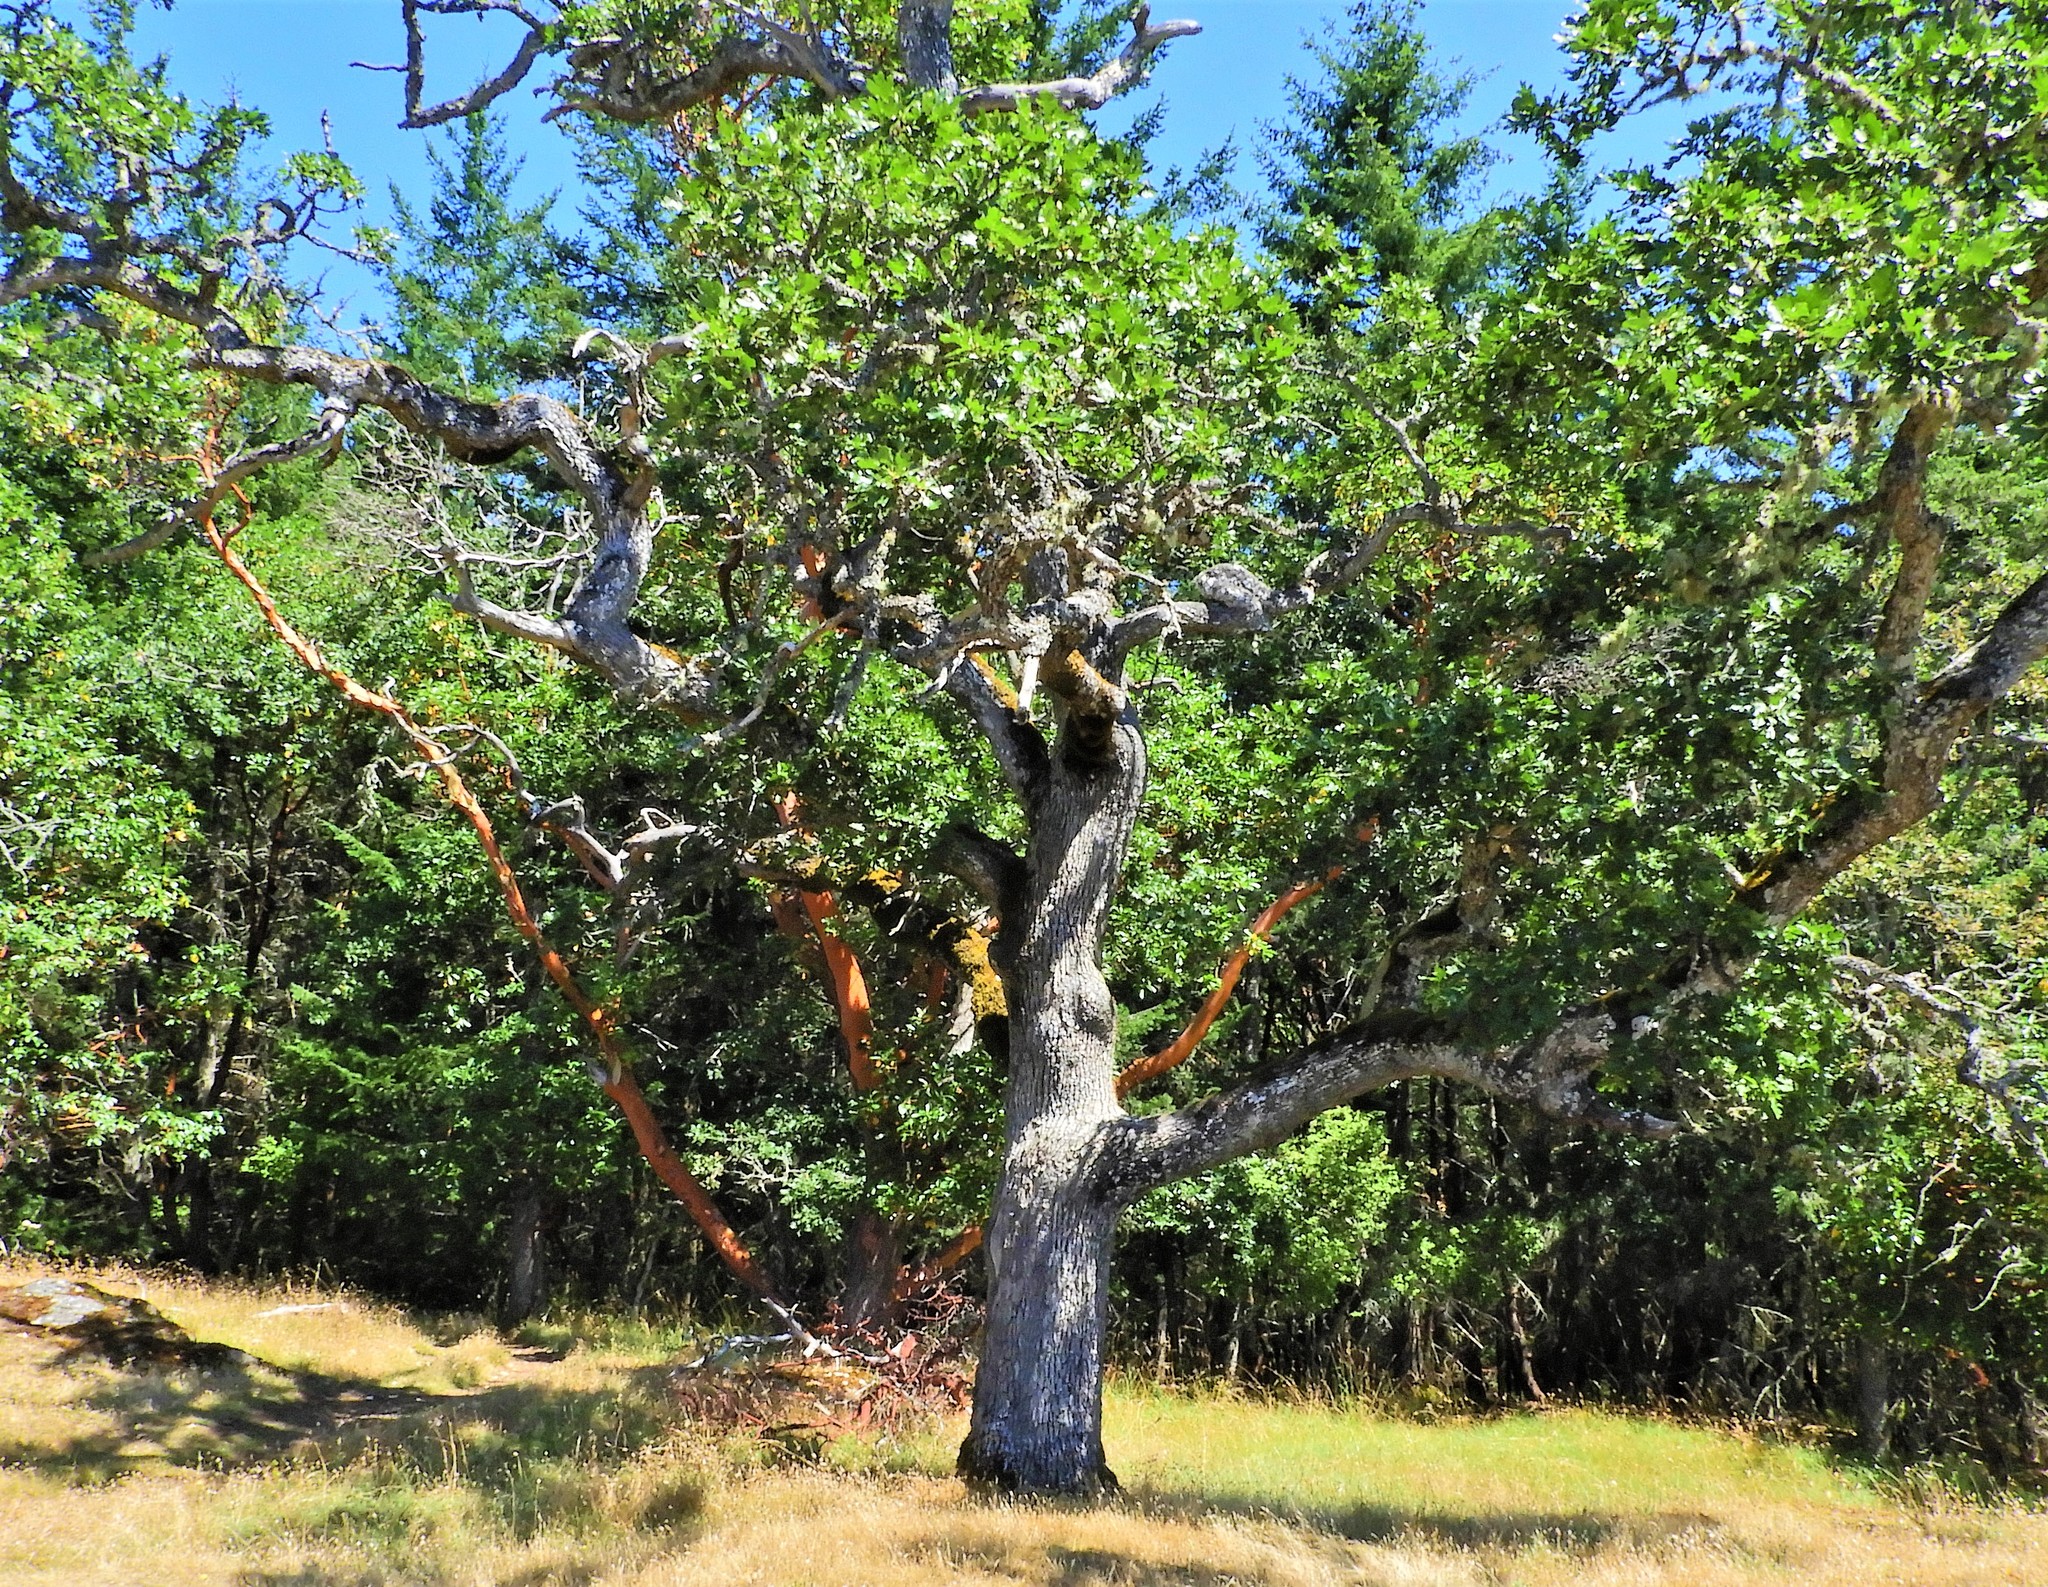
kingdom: Plantae
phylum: Tracheophyta
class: Magnoliopsida
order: Fagales
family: Fagaceae
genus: Quercus
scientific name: Quercus garryana
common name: Garry oak
